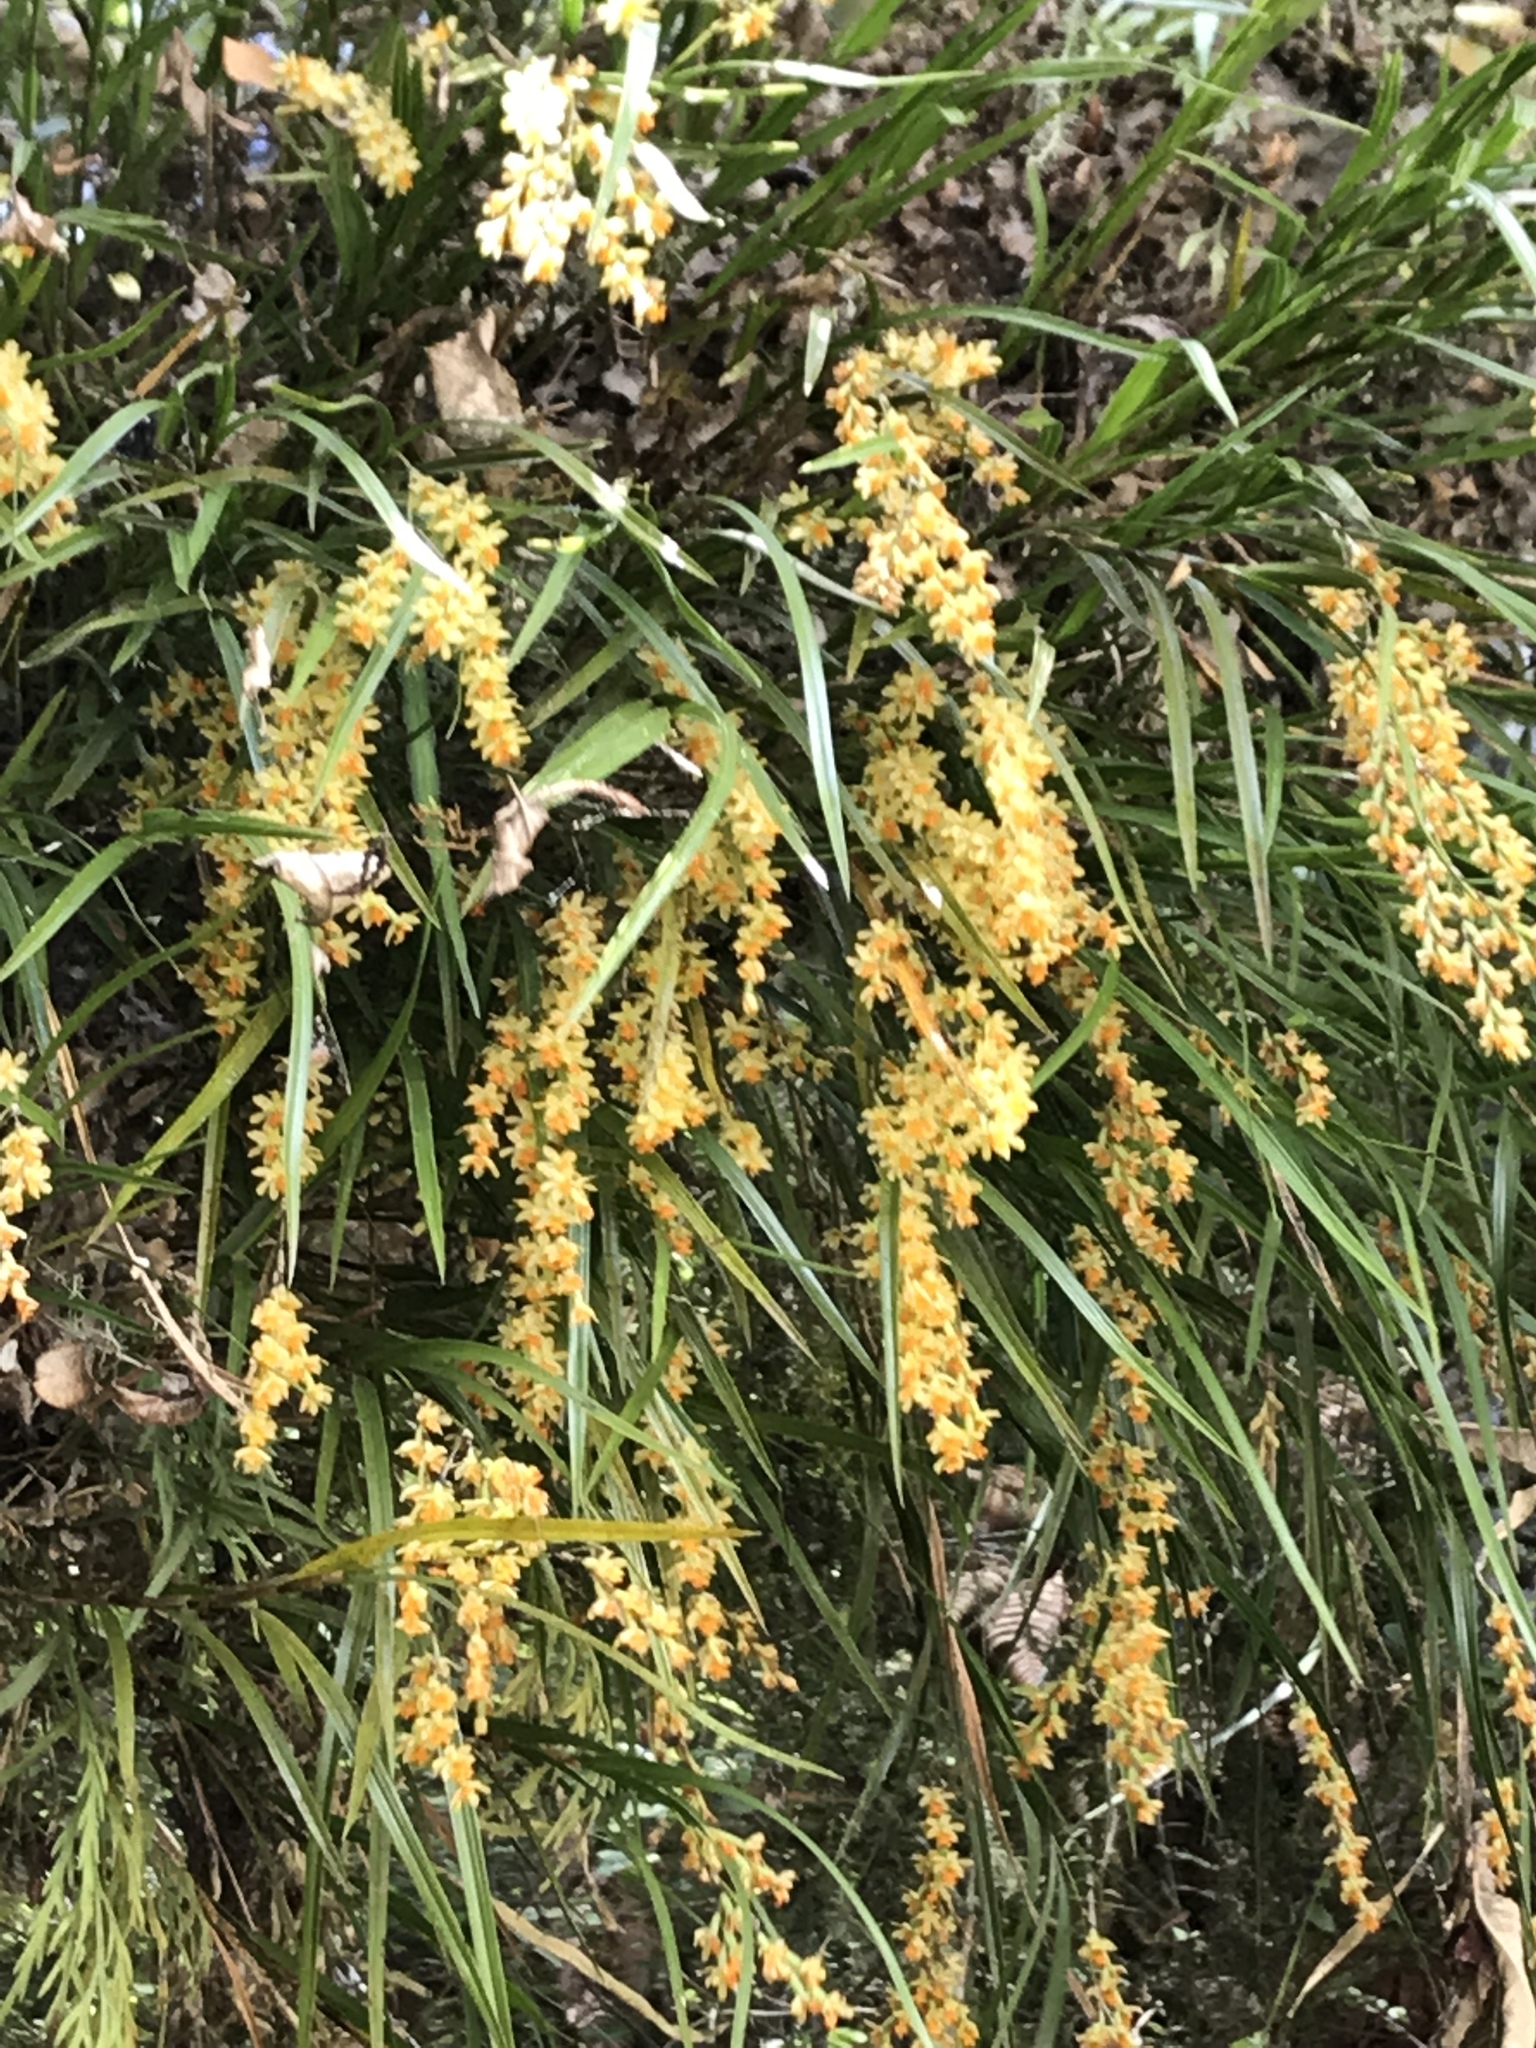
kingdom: Plantae
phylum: Tracheophyta
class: Liliopsida
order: Asparagales
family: Orchidaceae
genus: Earina
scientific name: Earina mucronata
